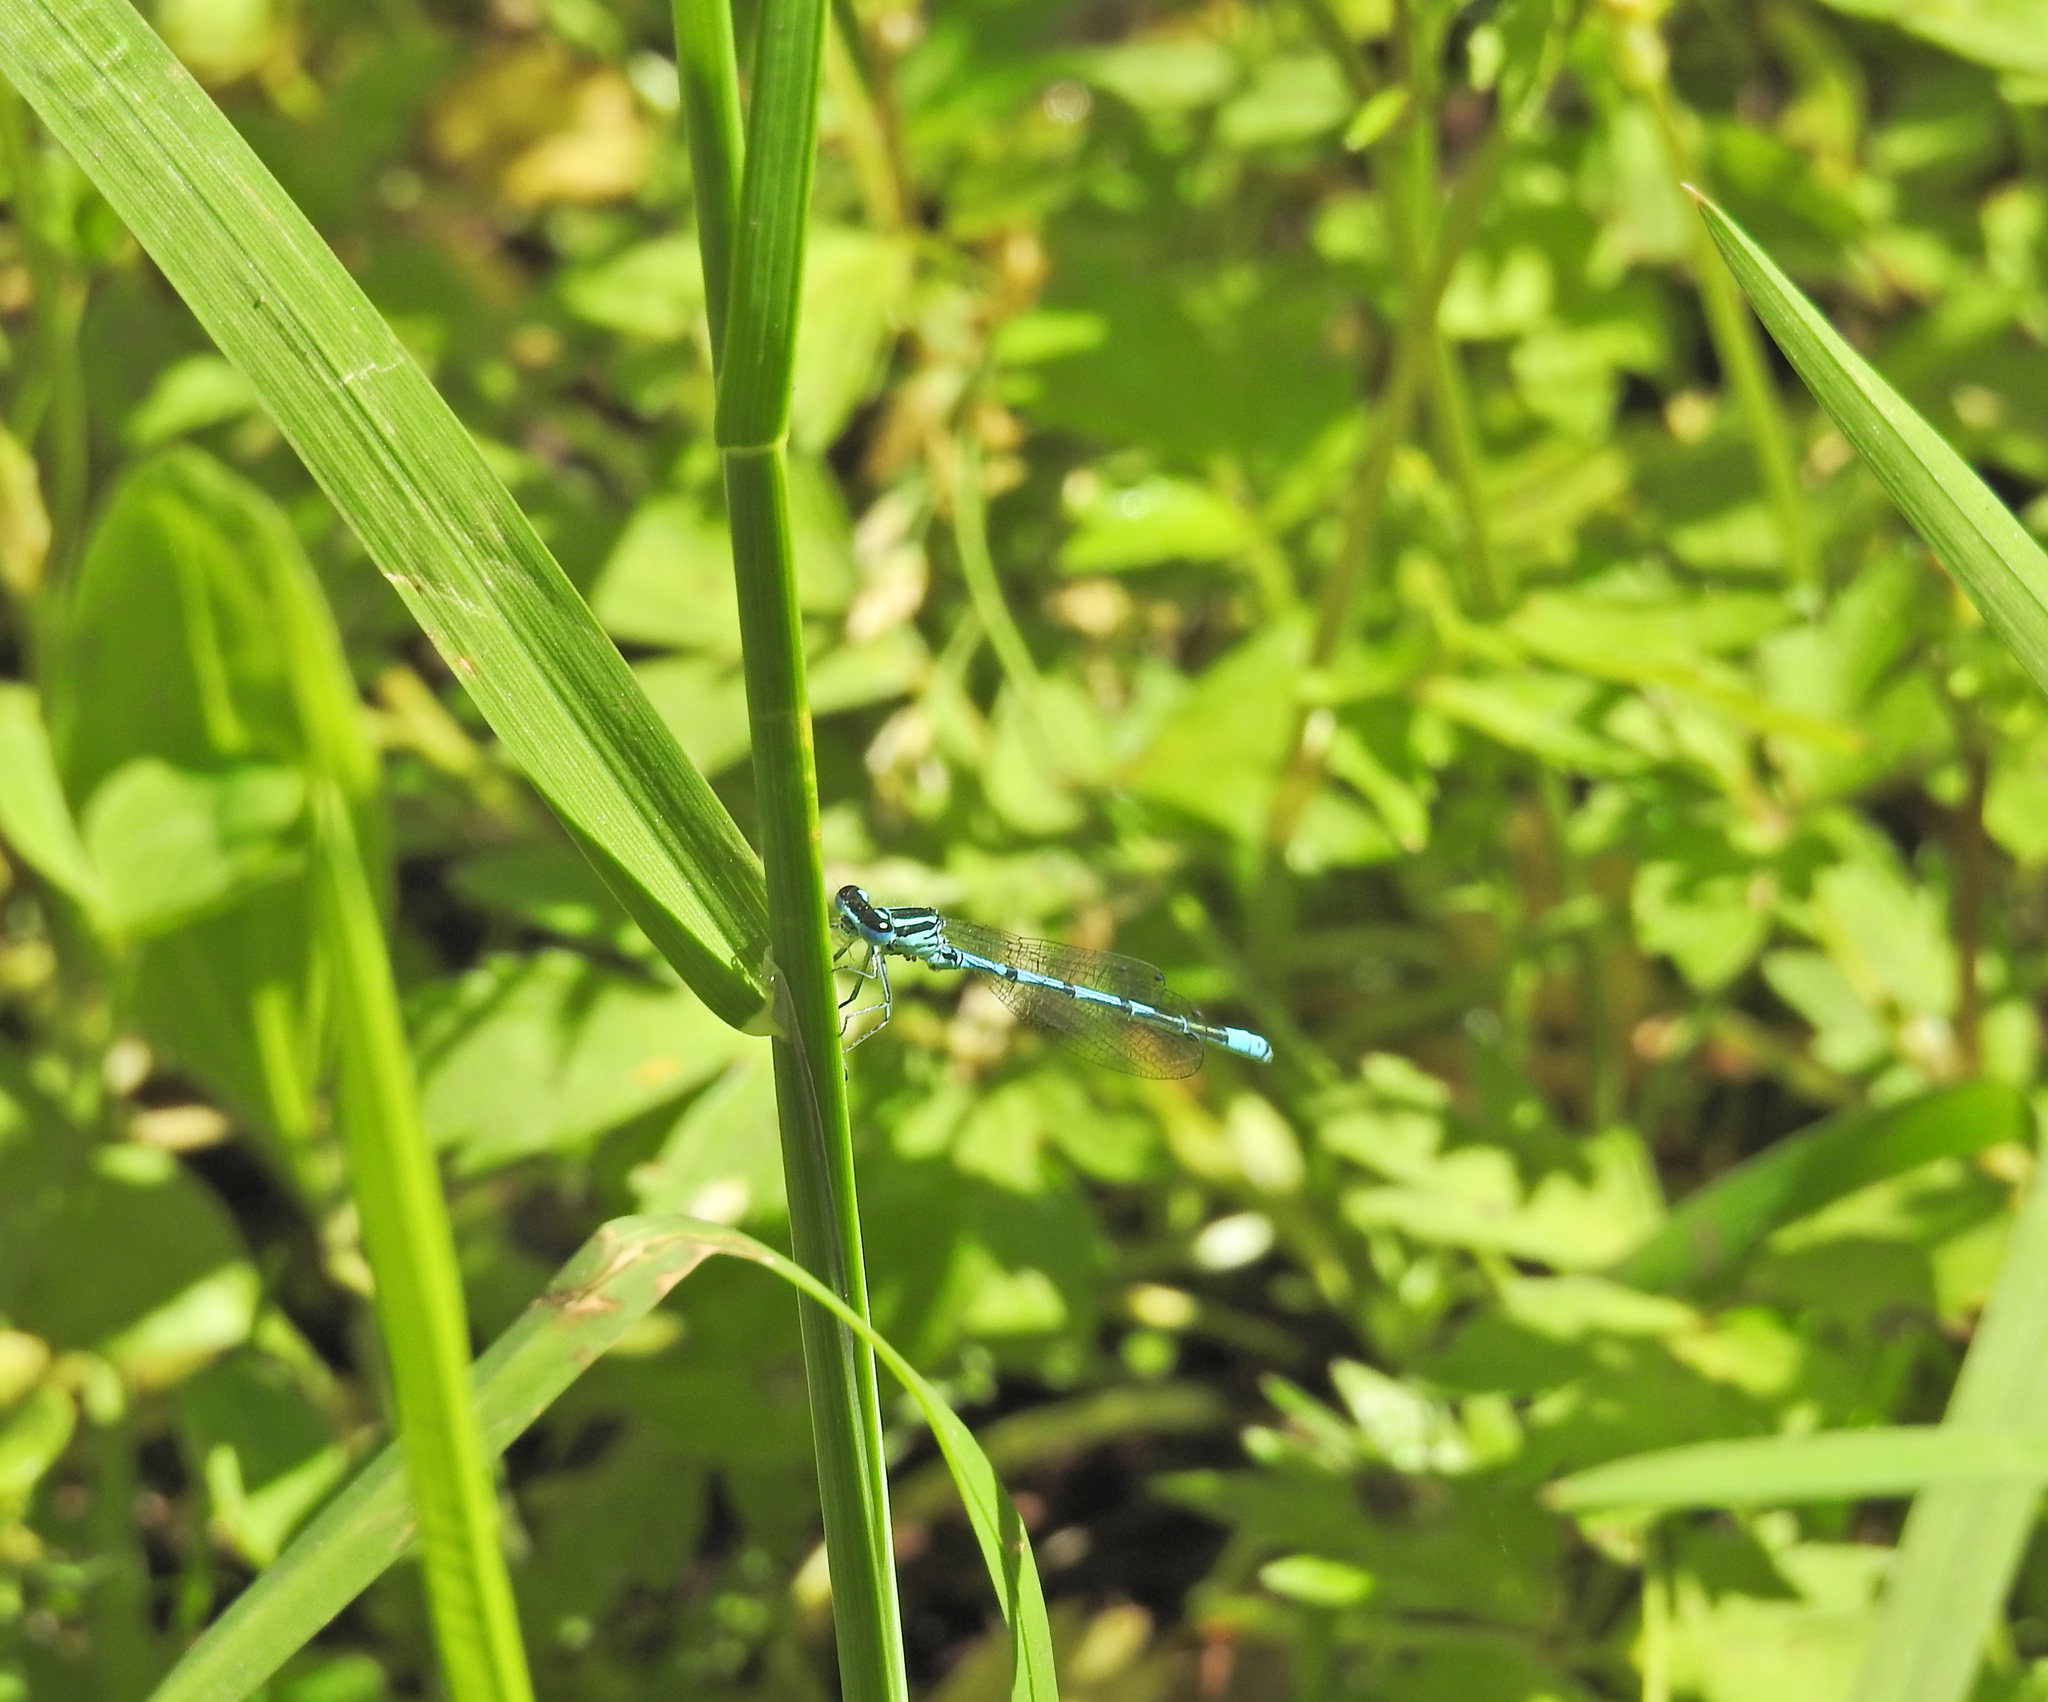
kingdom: Animalia
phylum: Arthropoda
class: Insecta
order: Odonata
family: Coenagrionidae
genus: Coenagrion
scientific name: Coenagrion puella
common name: Azure damselfly
